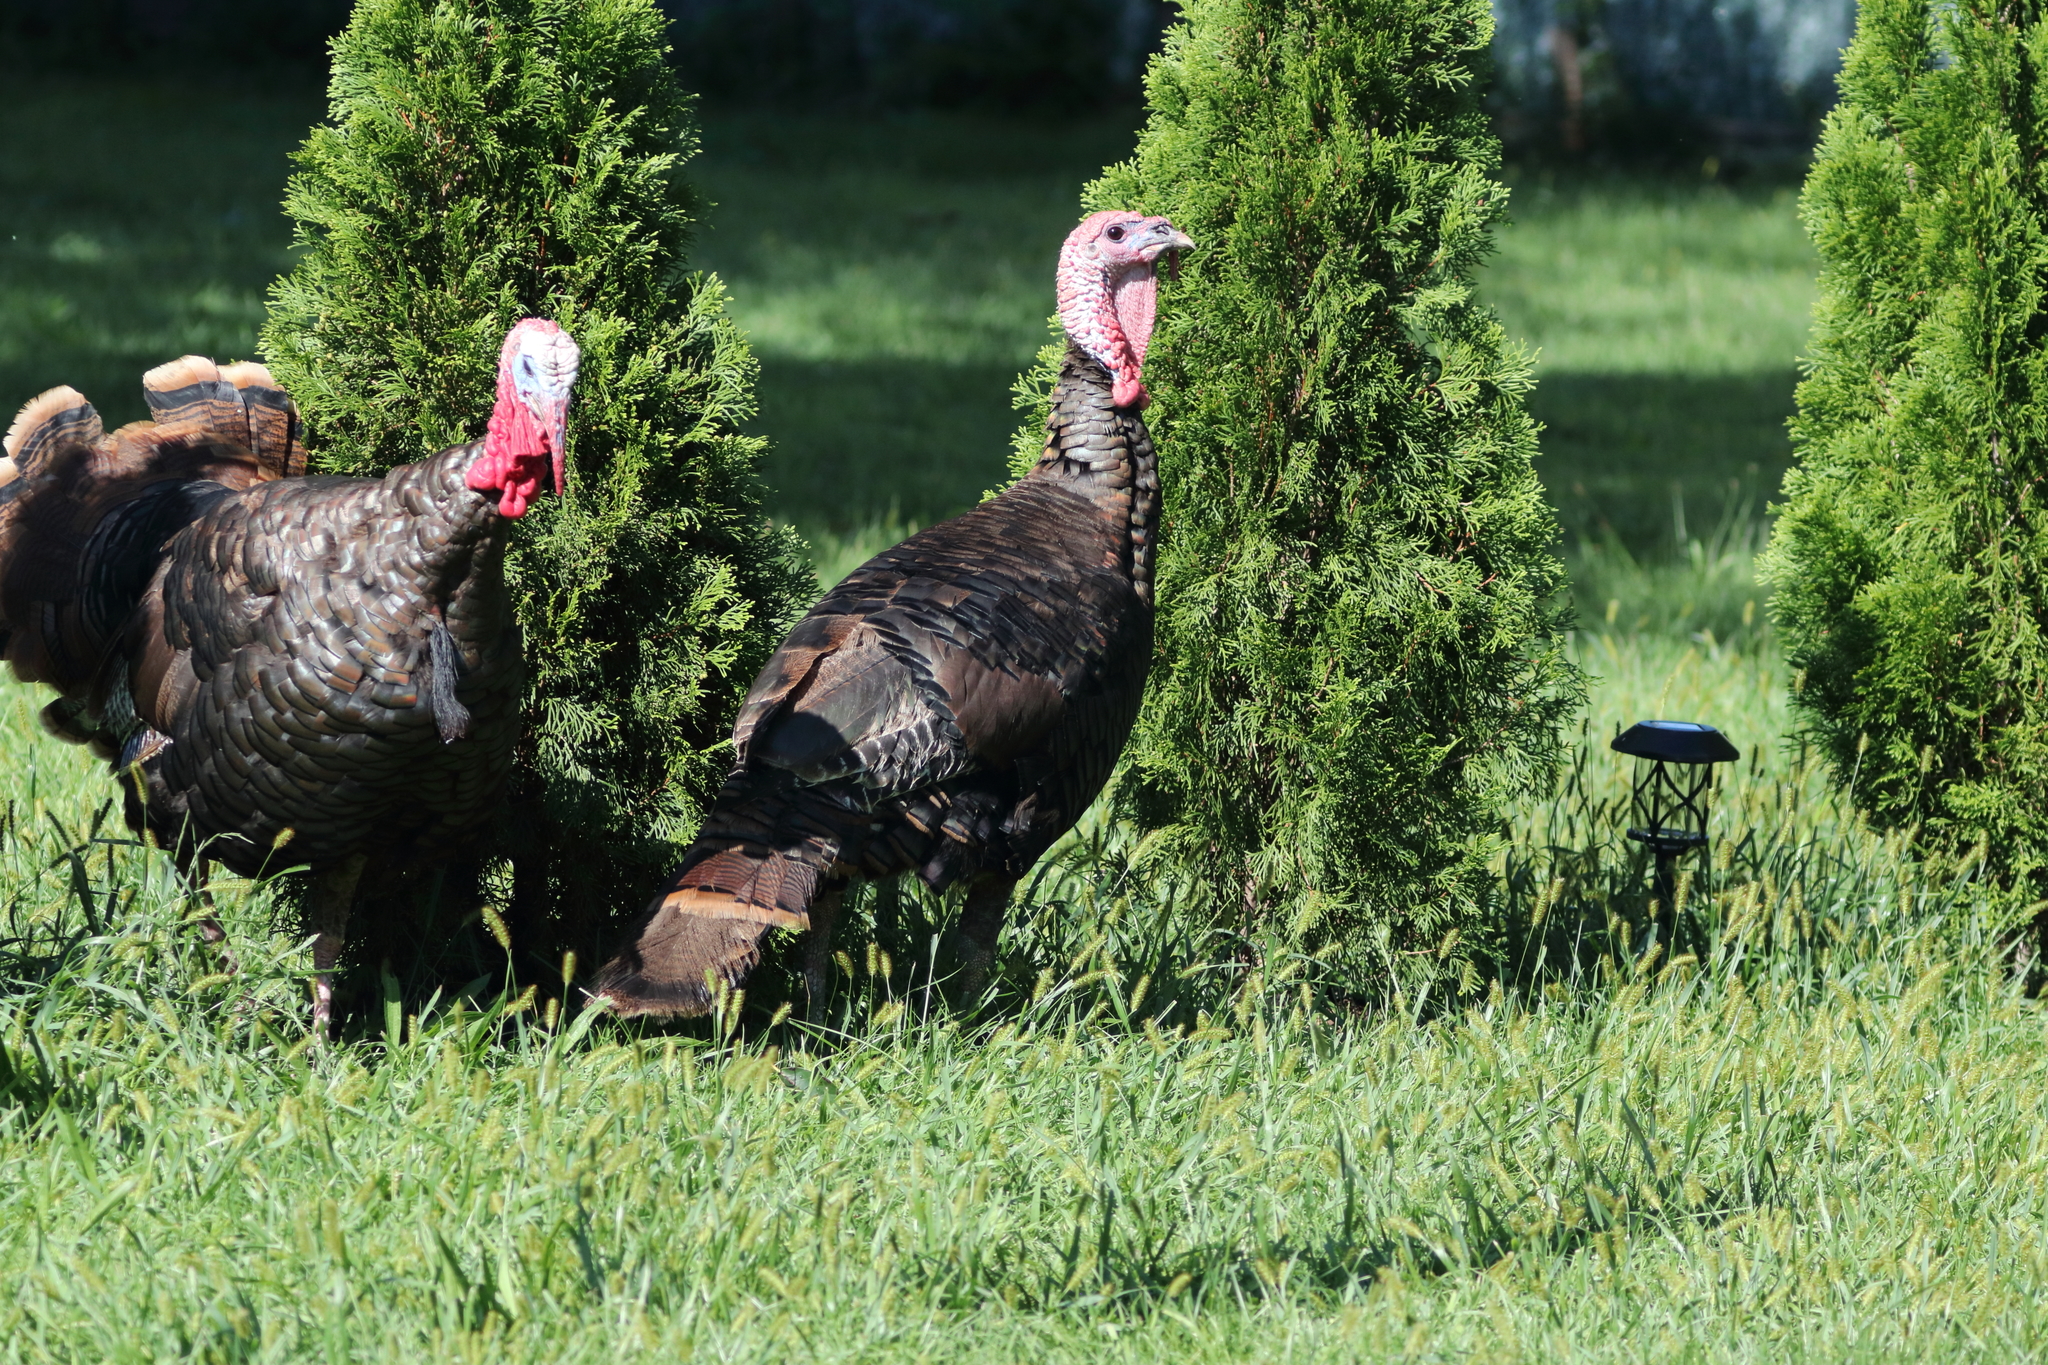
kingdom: Animalia
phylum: Chordata
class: Aves
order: Galliformes
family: Phasianidae
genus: Meleagris
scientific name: Meleagris gallopavo
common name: Wild turkey
